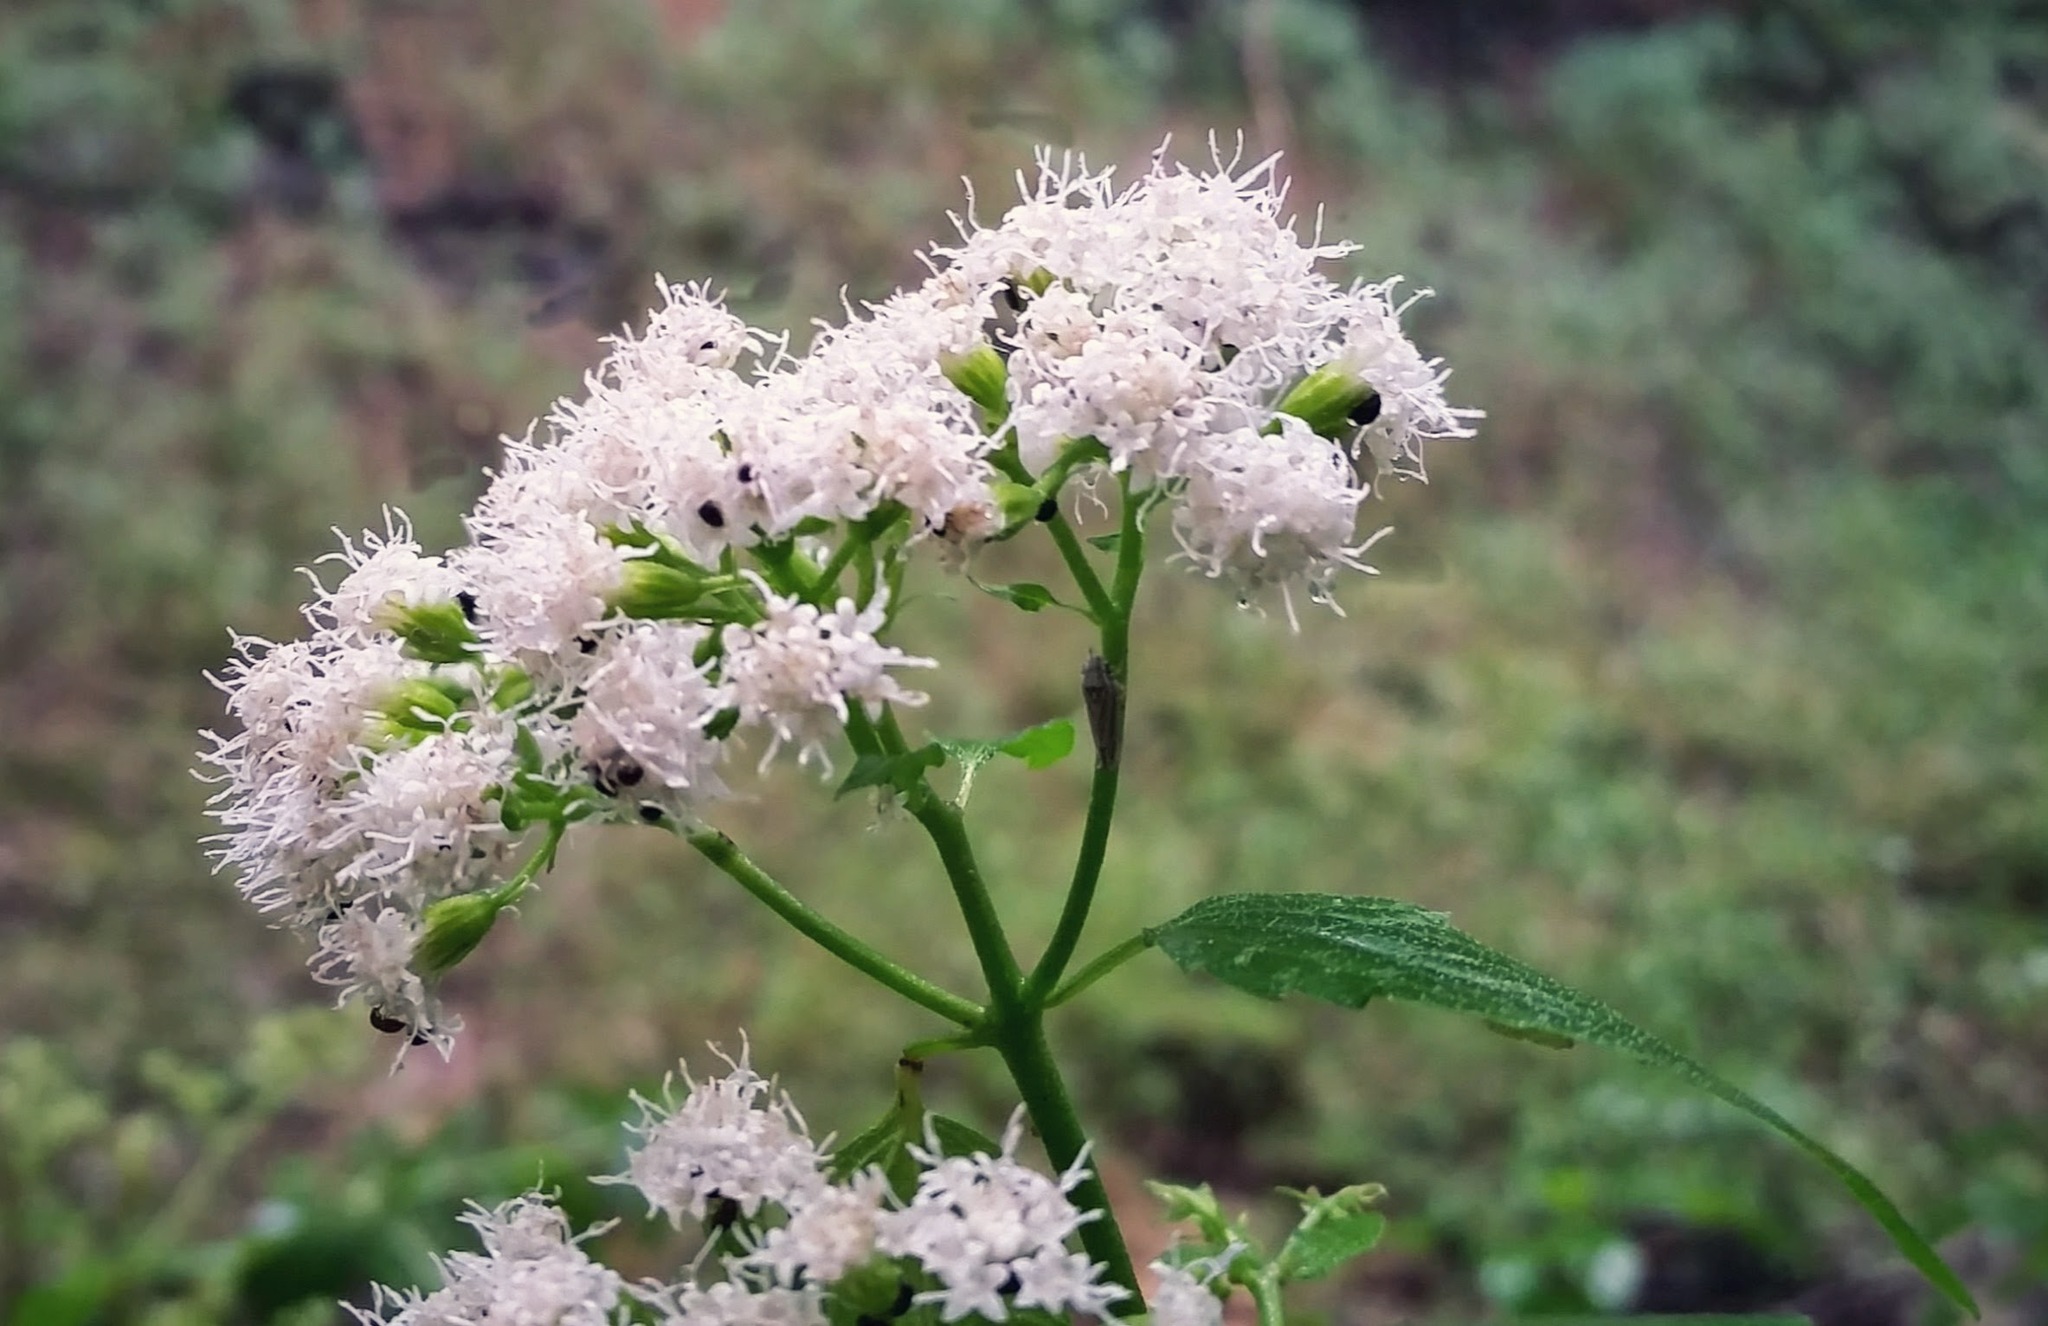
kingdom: Plantae
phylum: Tracheophyta
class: Magnoliopsida
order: Asterales
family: Asteraceae
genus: Ageratina
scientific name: Ageratina altissima
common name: White snakeroot
